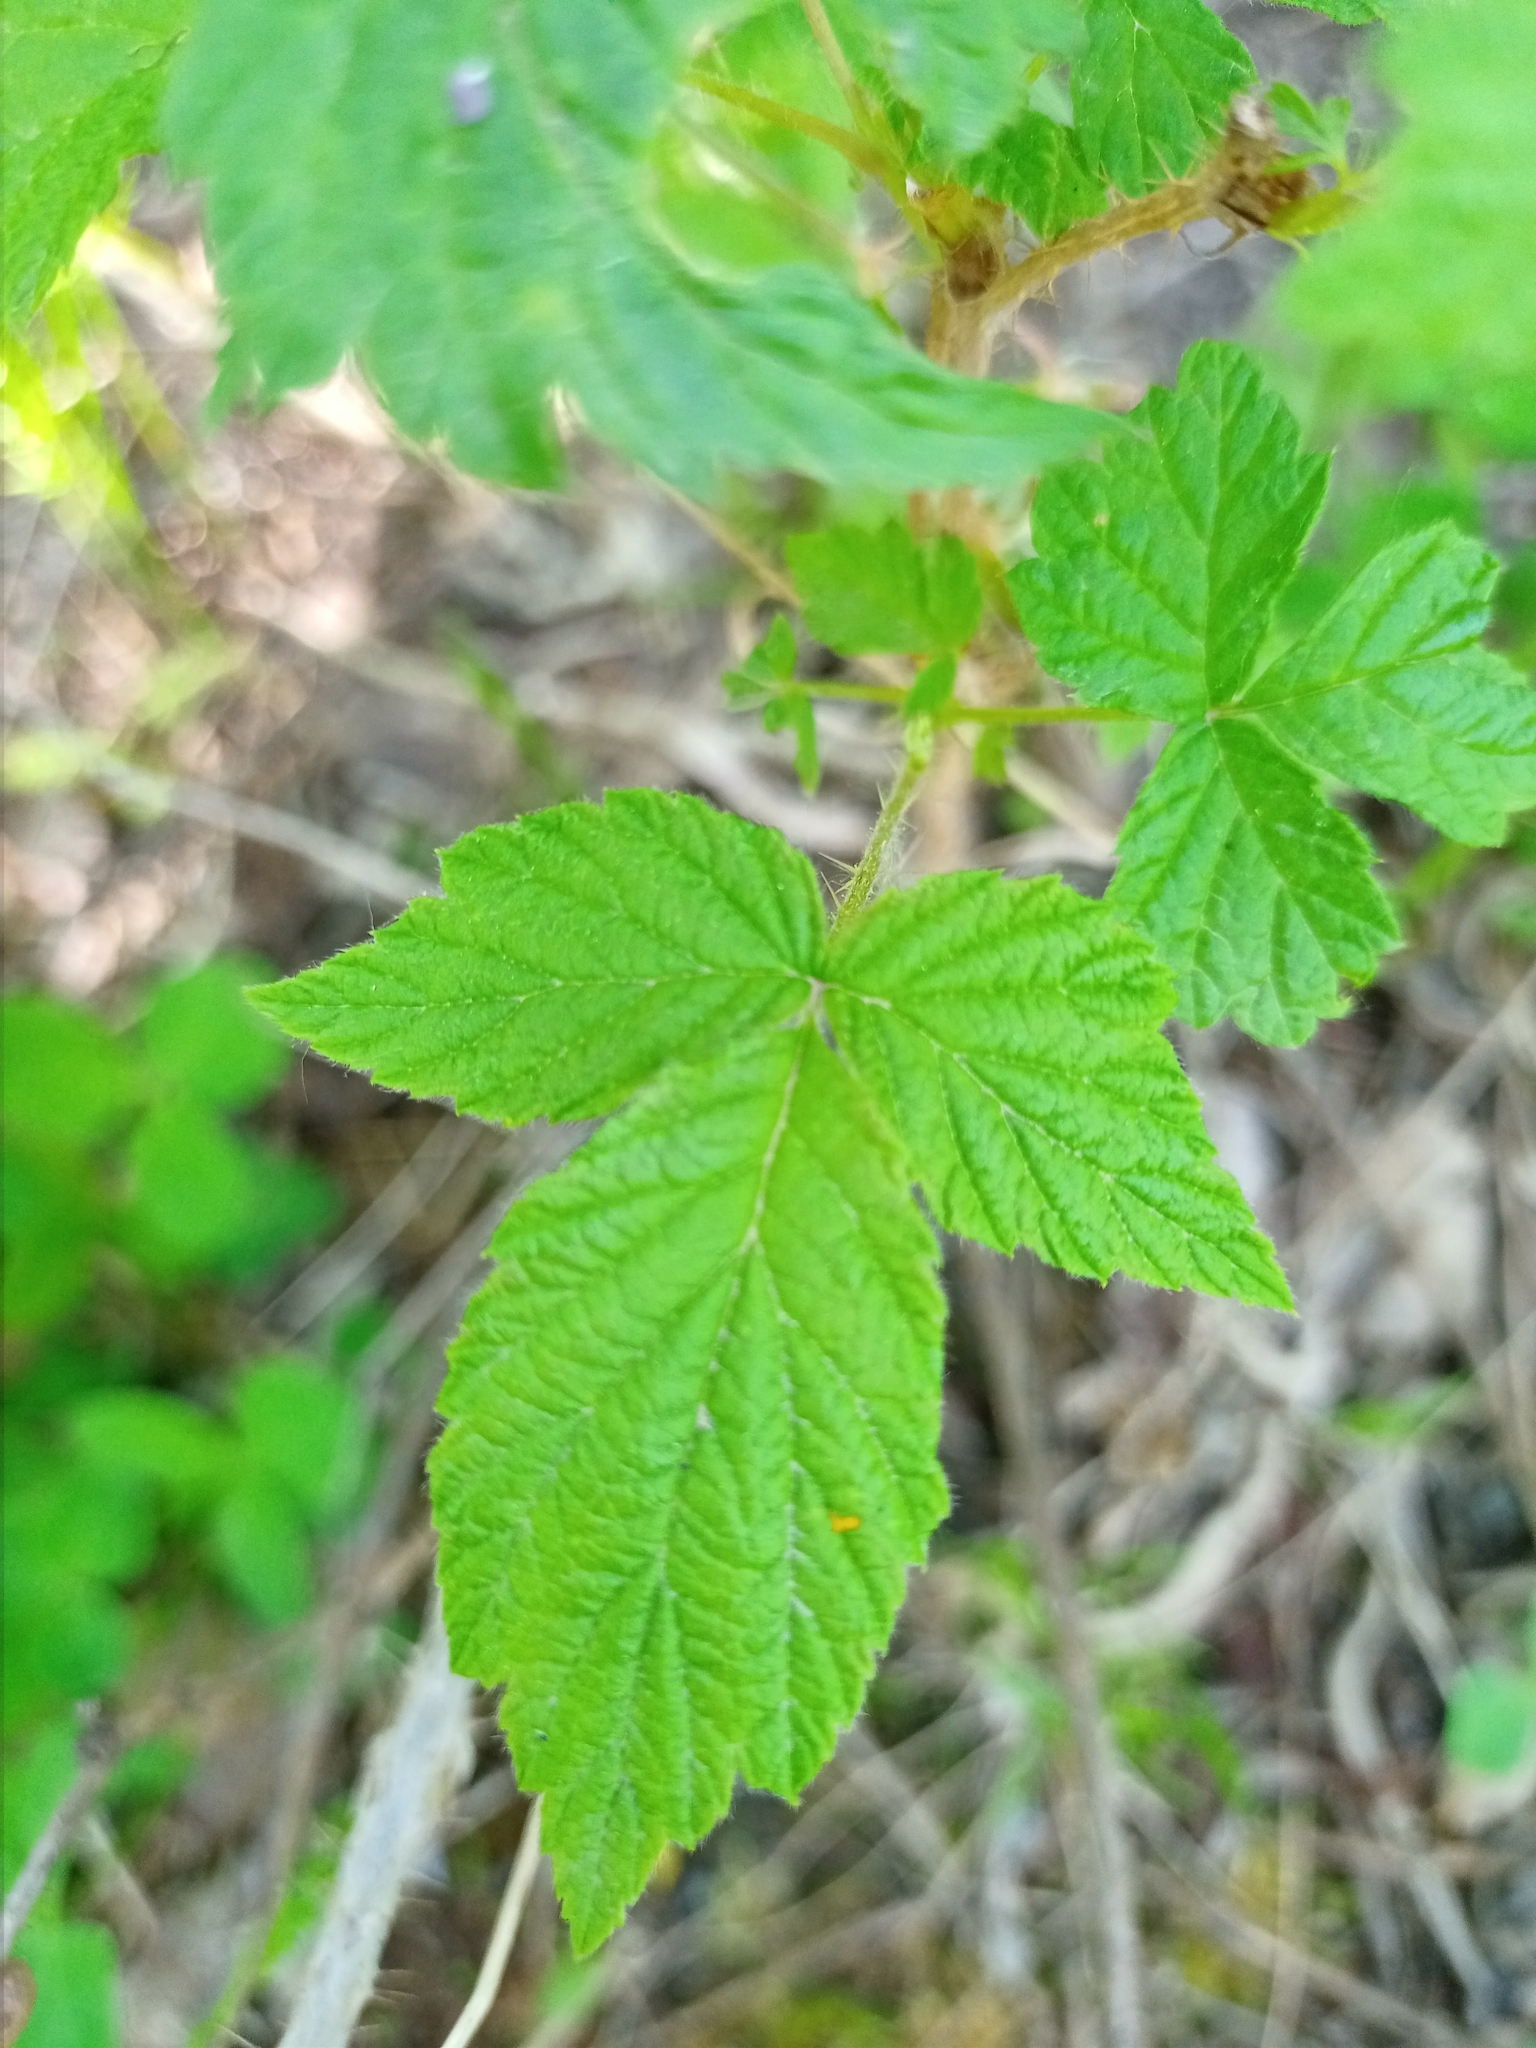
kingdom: Plantae
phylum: Tracheophyta
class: Magnoliopsida
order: Rosales
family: Rosaceae
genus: Rubus
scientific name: Rubus arcticus
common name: Arctic bramble
